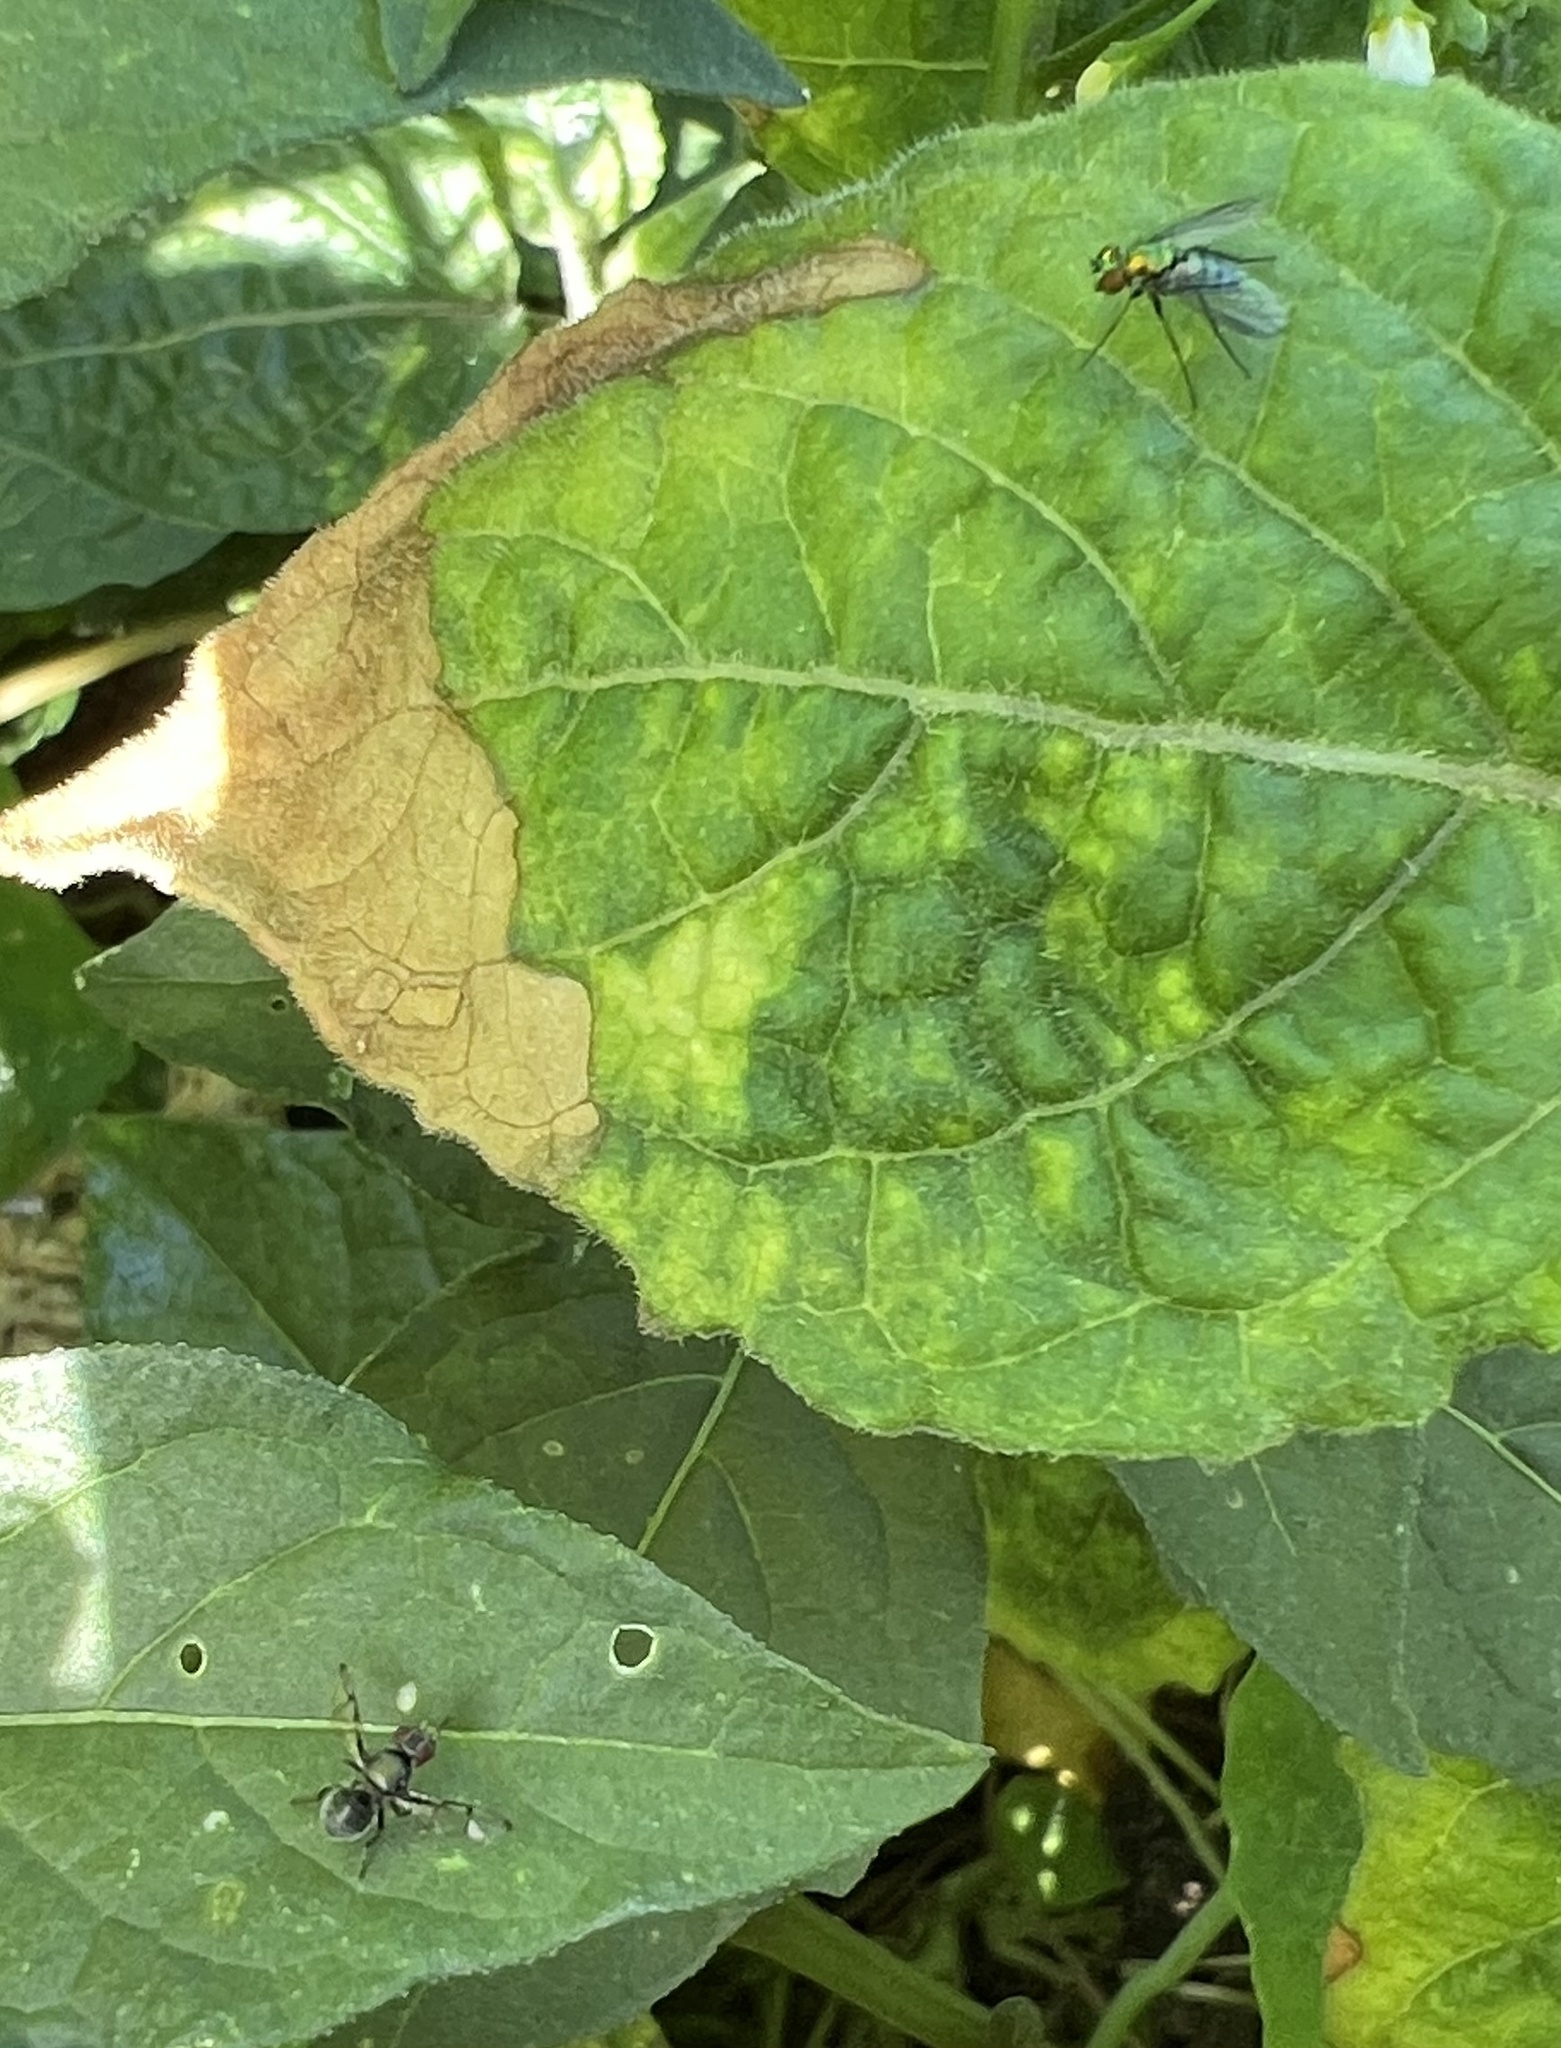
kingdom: Animalia
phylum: Arthropoda
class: Insecta
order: Diptera
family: Dolichopodidae
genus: Condylostylus
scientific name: Condylostylus longicornis
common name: Long-legged fly
